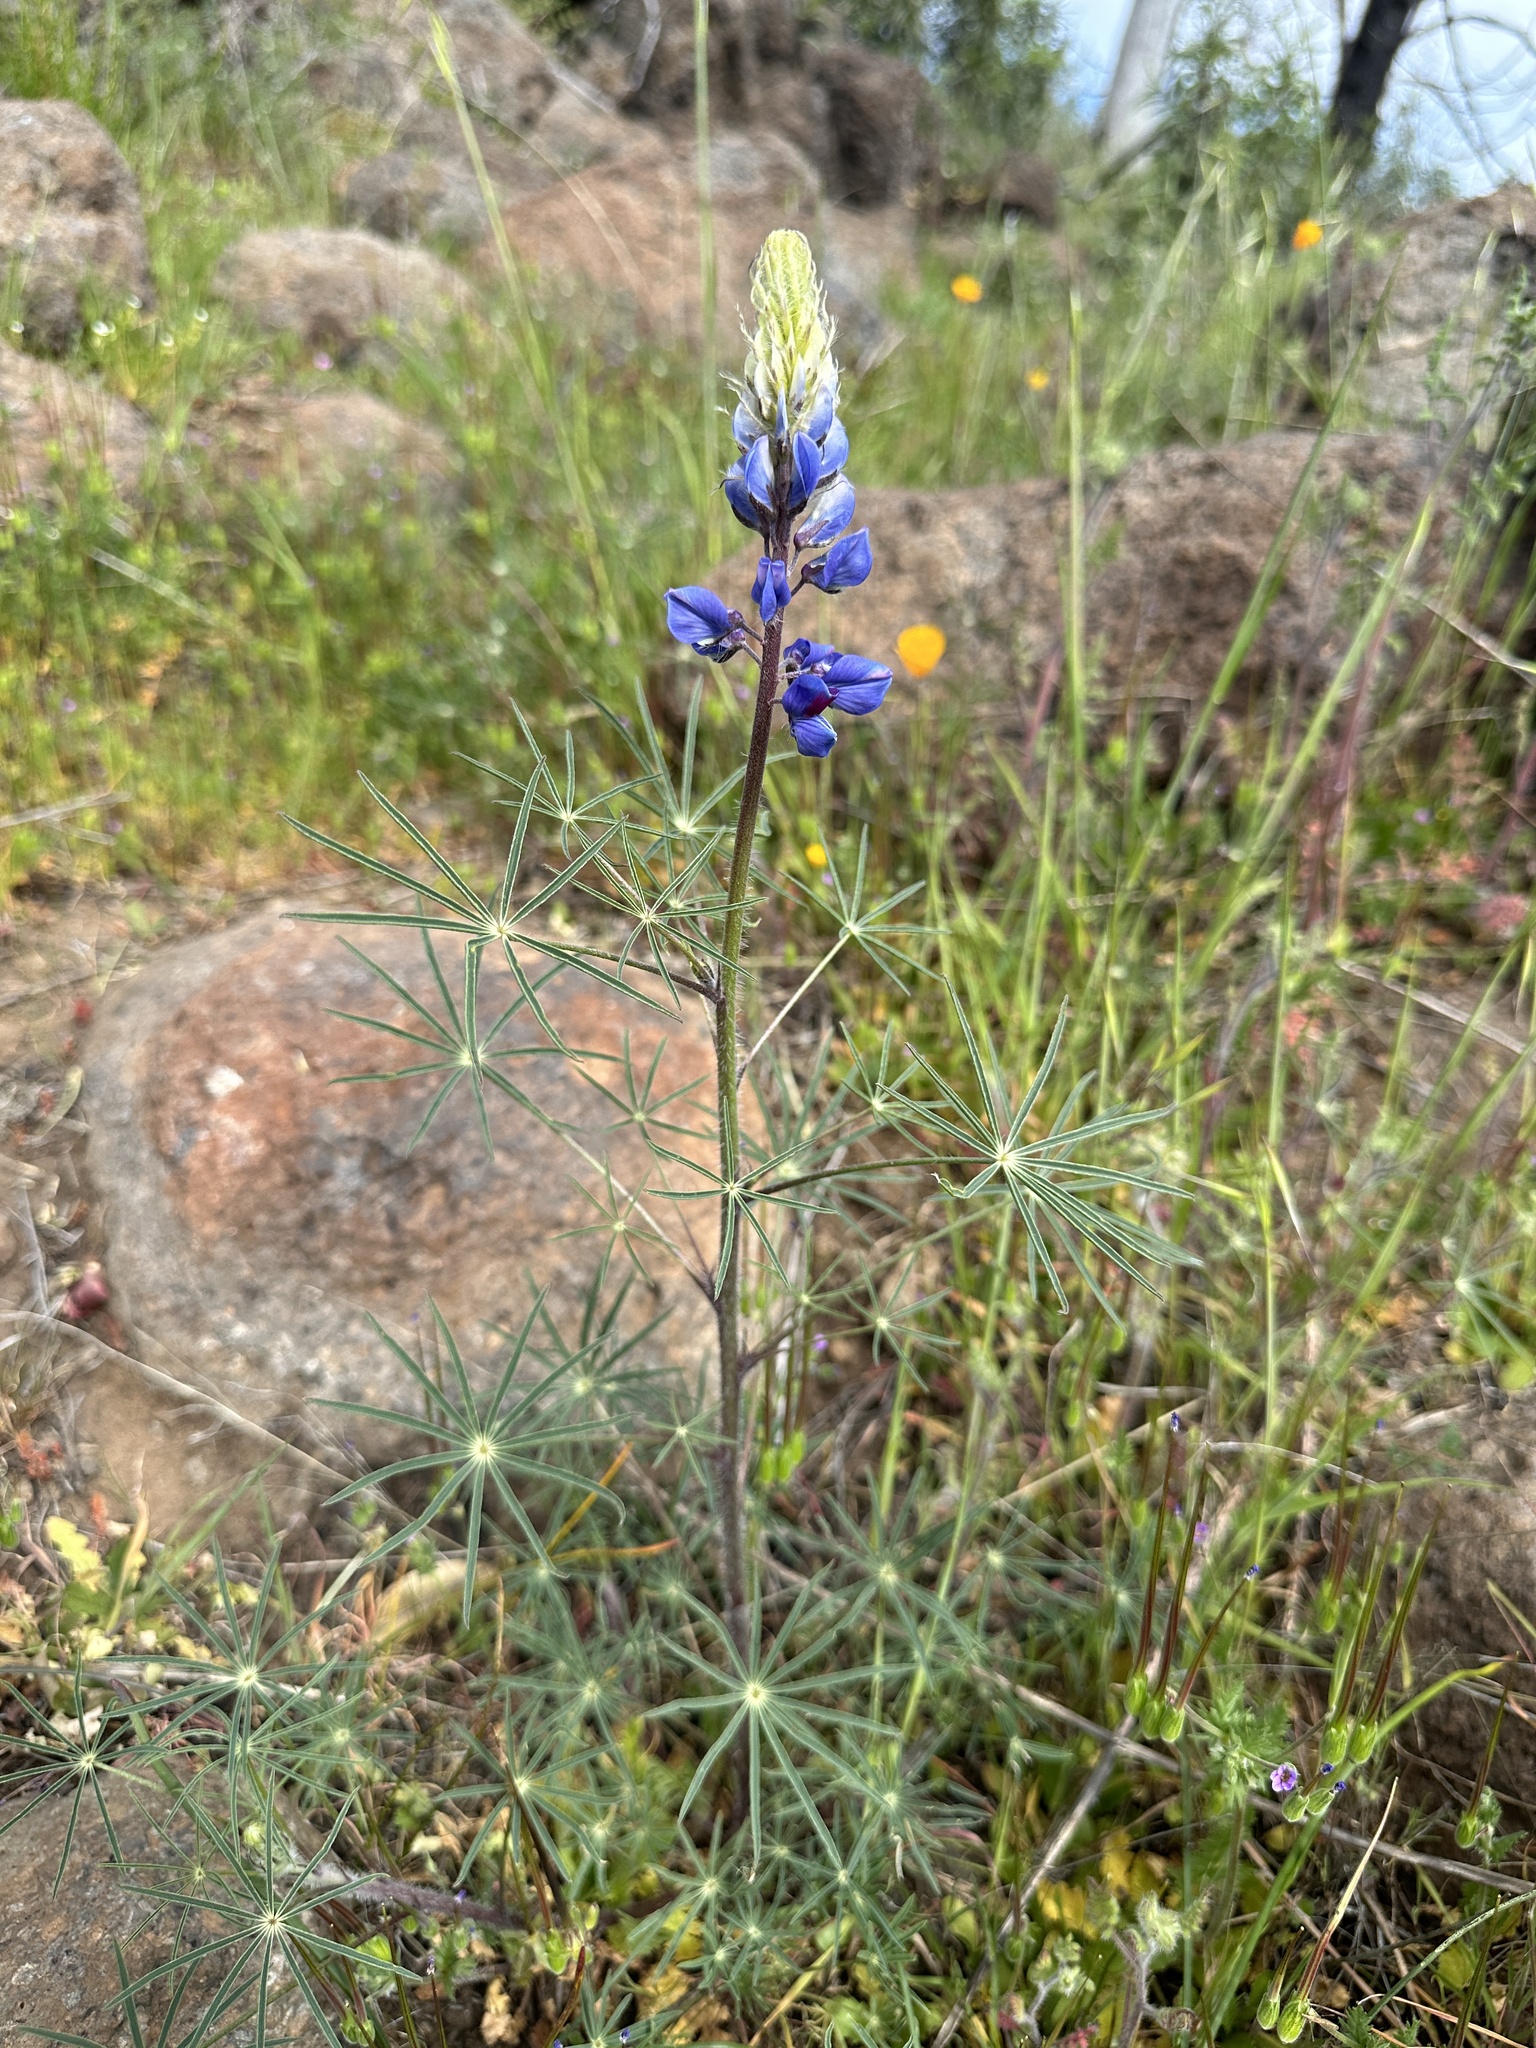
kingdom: Plantae
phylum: Tracheophyta
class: Magnoliopsida
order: Fabales
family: Fabaceae
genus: Lupinus
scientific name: Lupinus benthamii
